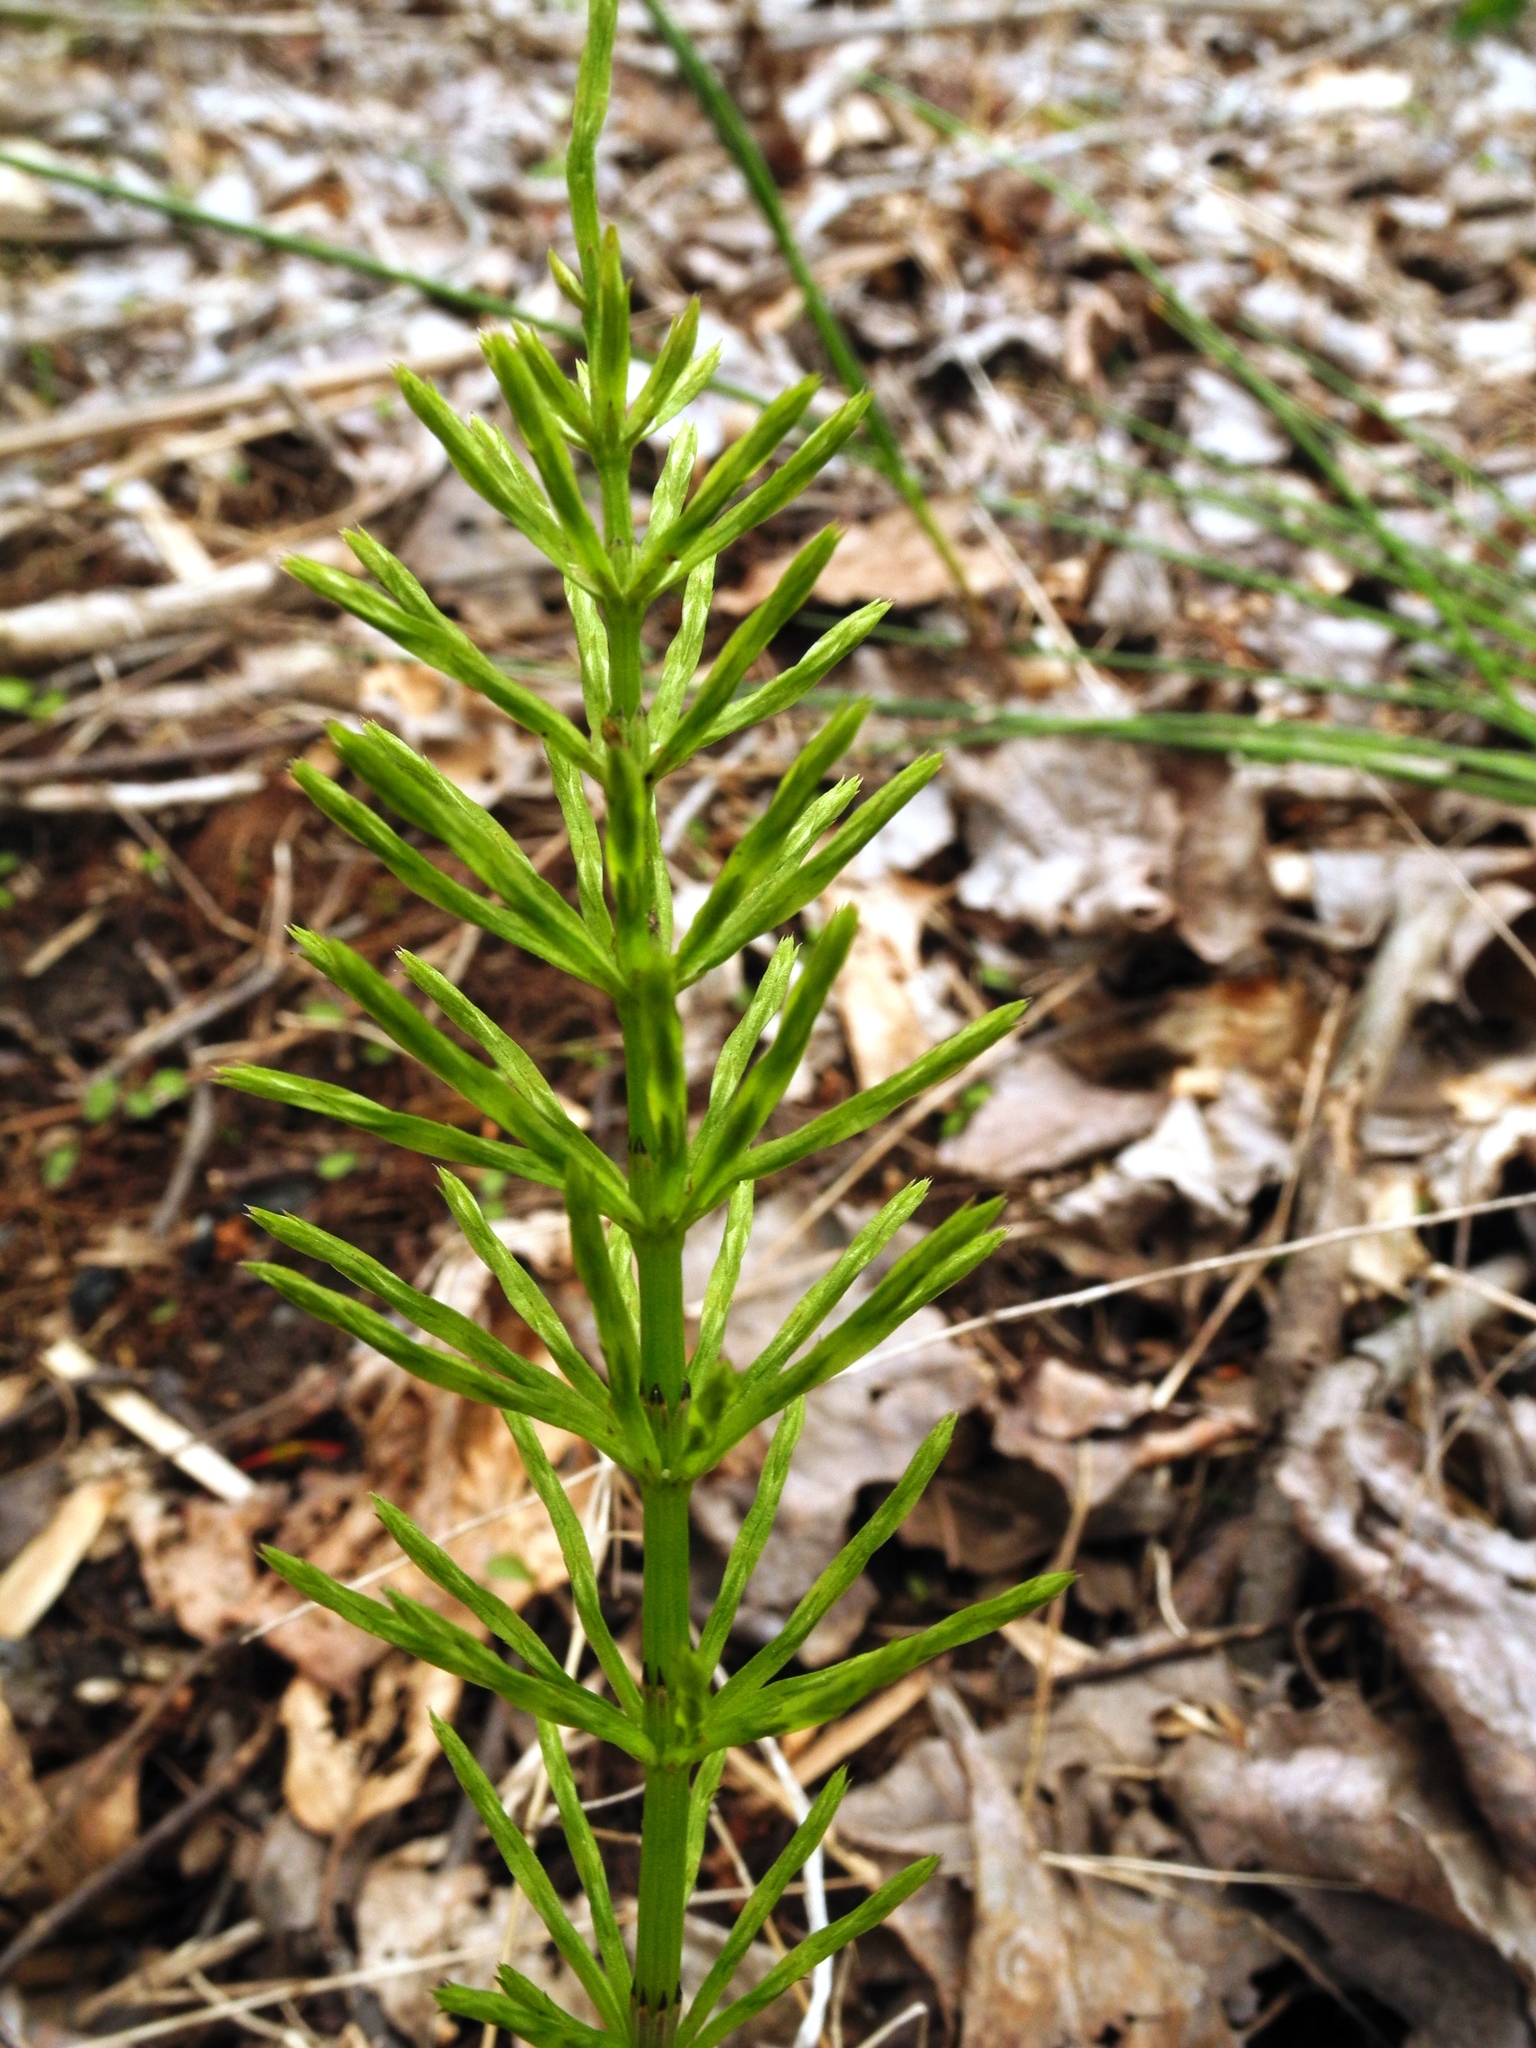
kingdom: Plantae
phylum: Tracheophyta
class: Polypodiopsida
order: Equisetales
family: Equisetaceae
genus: Equisetum
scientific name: Equisetum arvense
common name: Field horsetail
